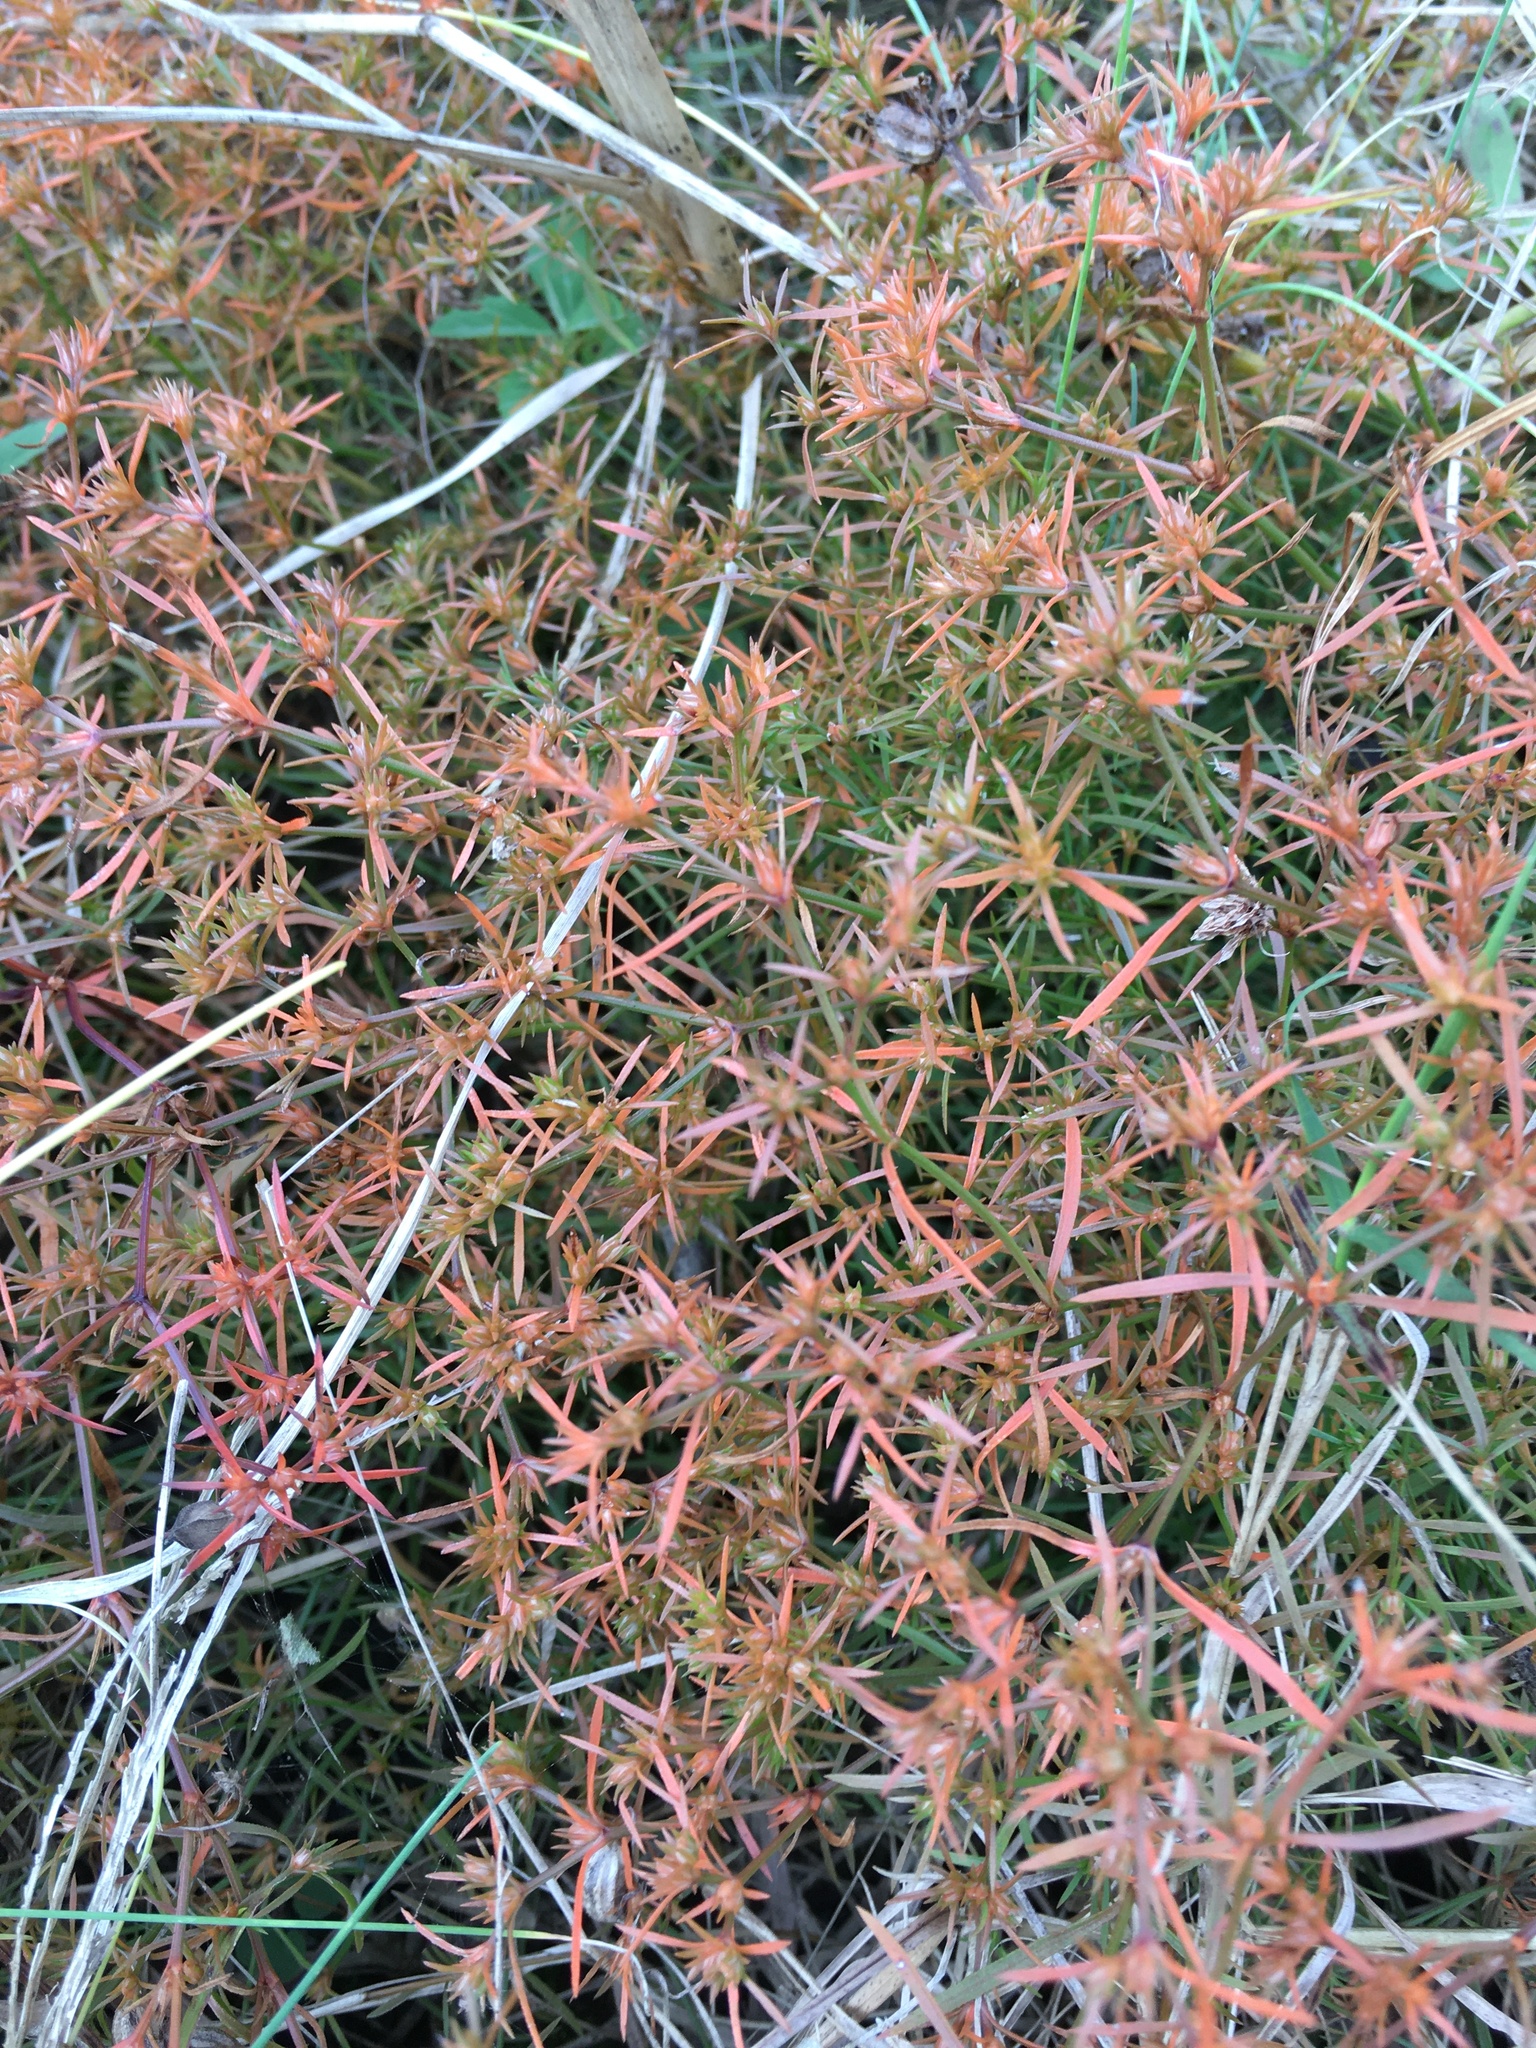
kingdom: Plantae
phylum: Tracheophyta
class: Magnoliopsida
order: Lamiales
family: Tetrachondraceae
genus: Polypremum
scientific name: Polypremum procumbens
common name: Juniper-leaf
